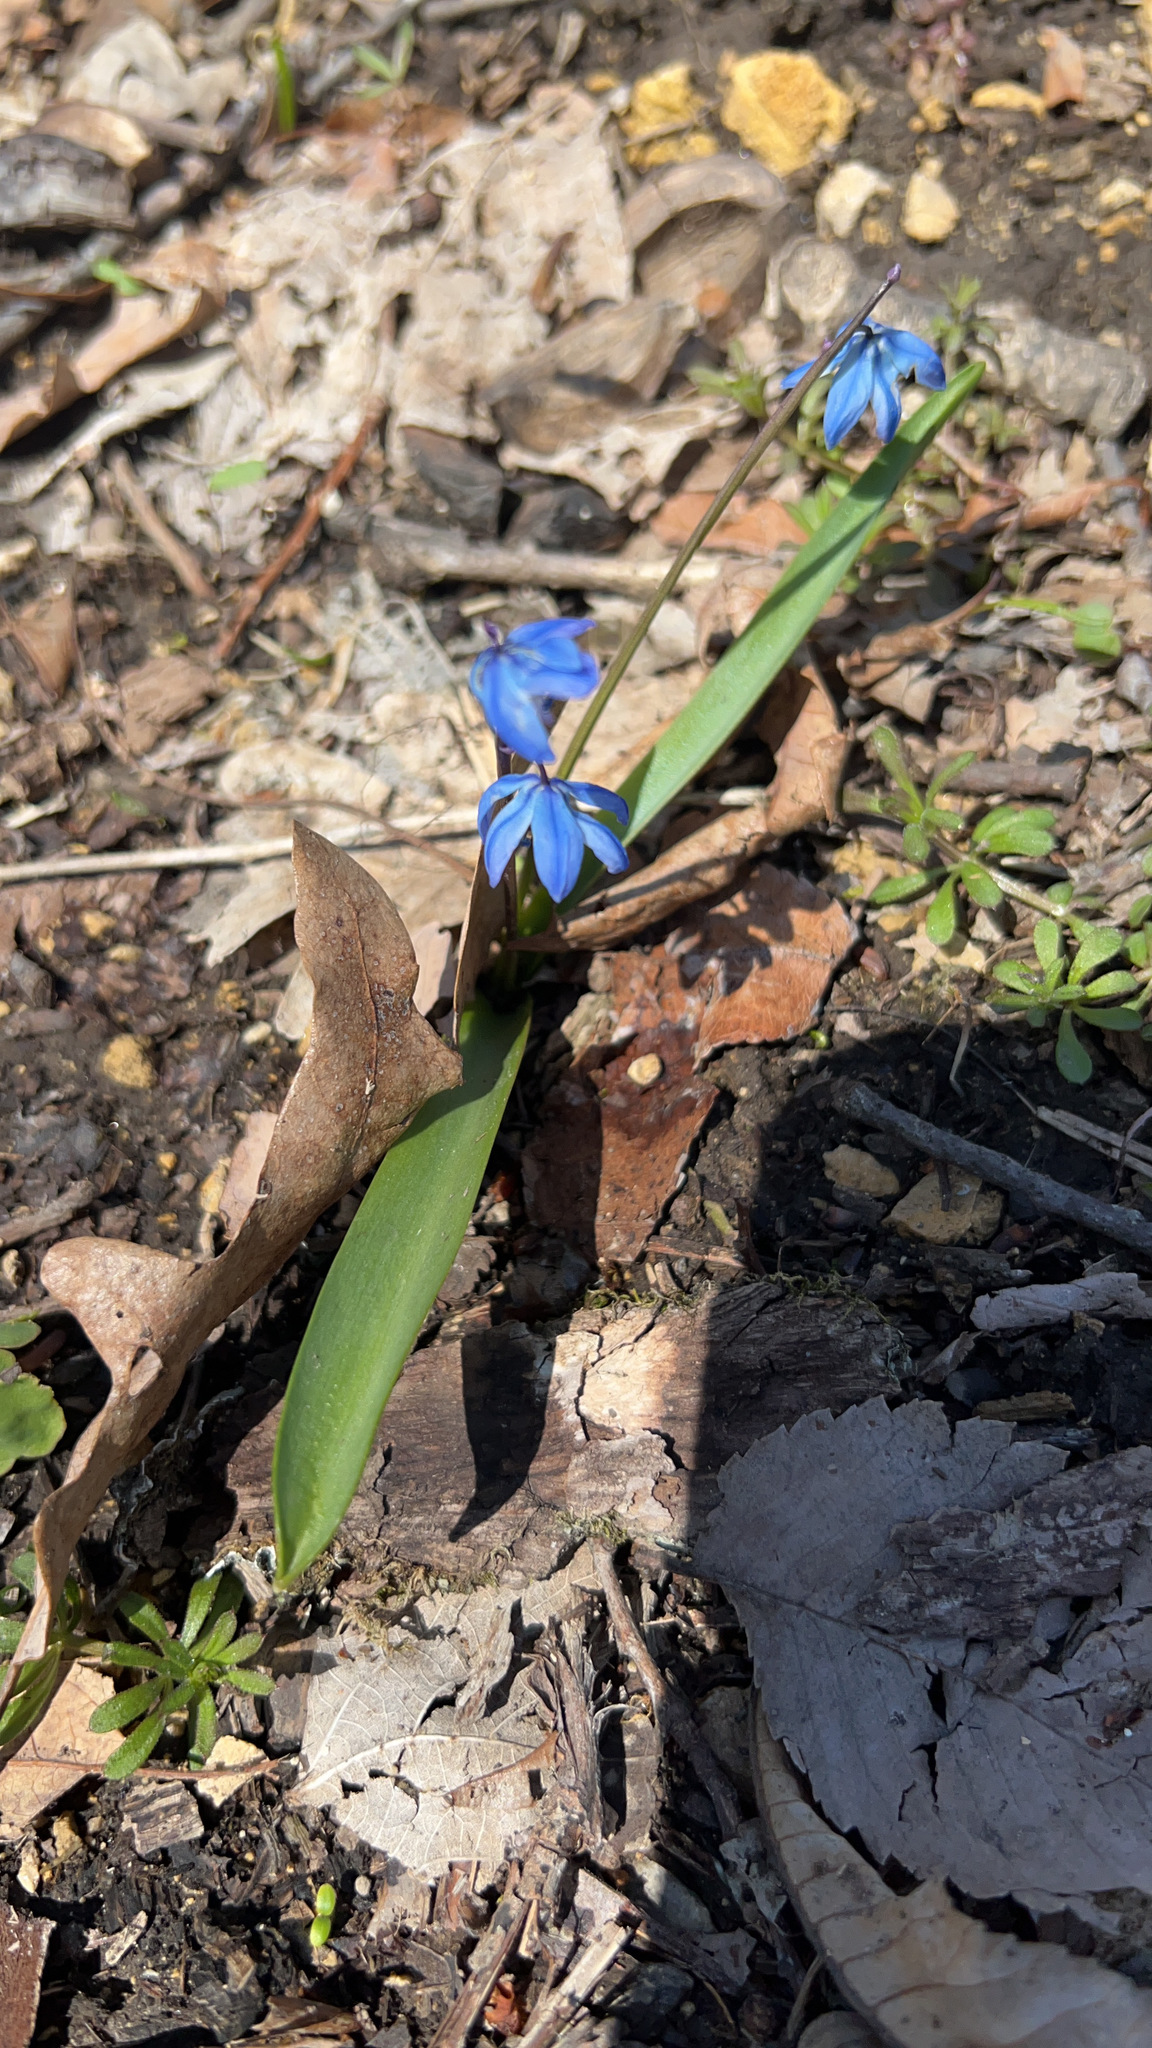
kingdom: Plantae
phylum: Tracheophyta
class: Liliopsida
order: Asparagales
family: Asparagaceae
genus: Scilla
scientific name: Scilla siberica
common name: Siberian squill
